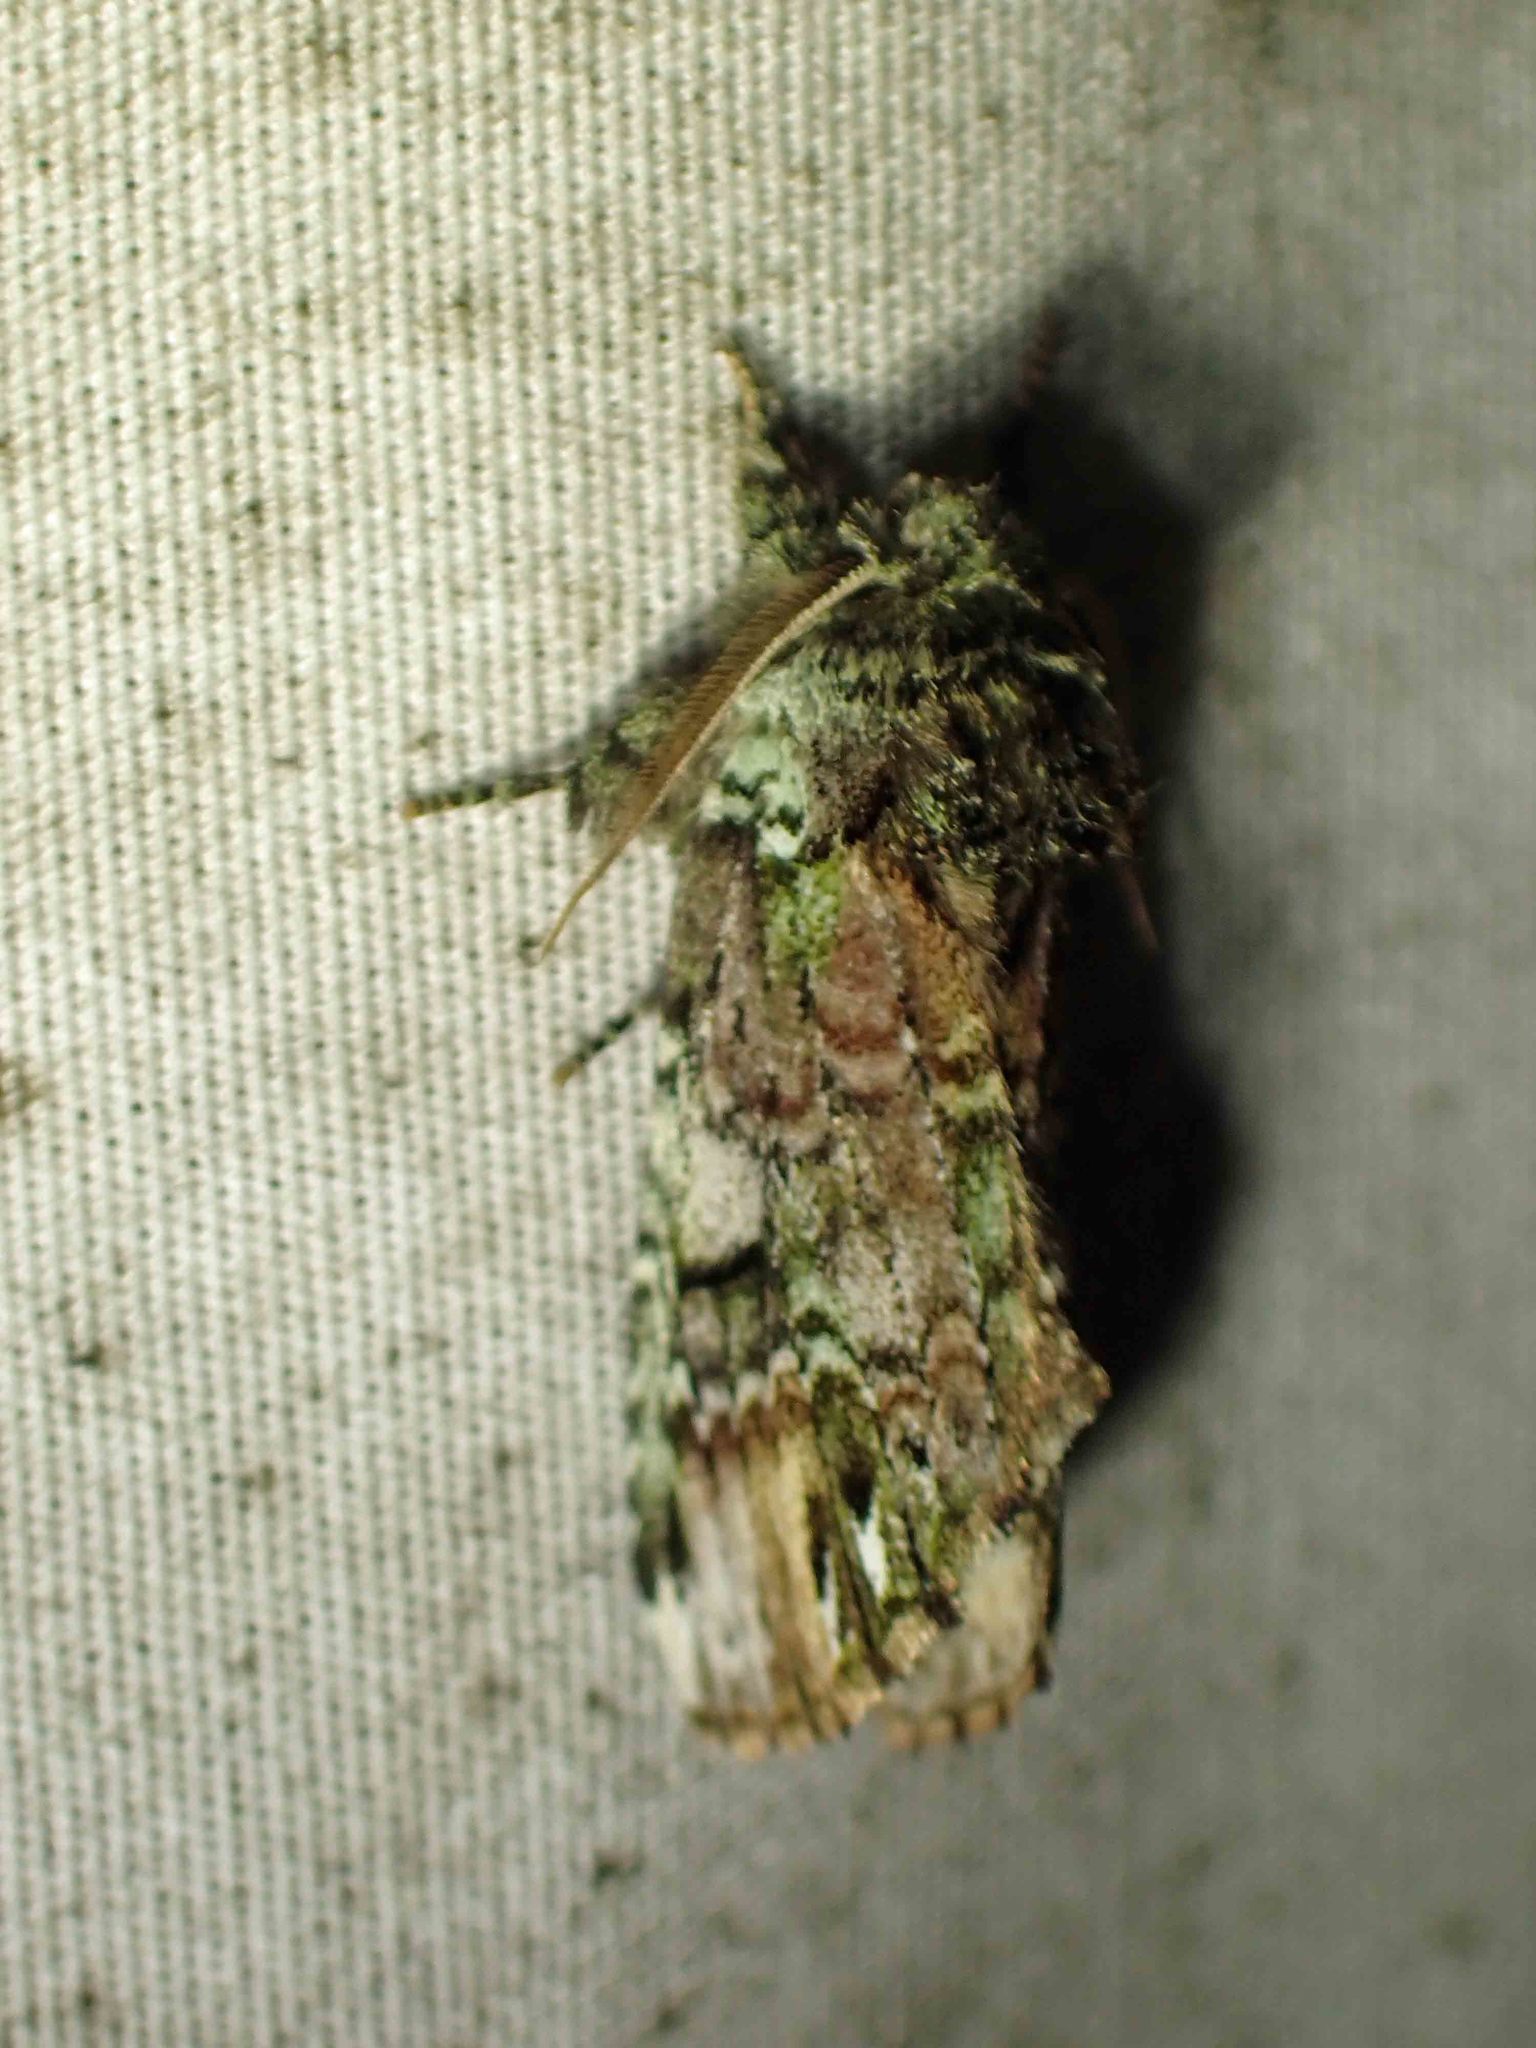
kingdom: Animalia
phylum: Arthropoda
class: Insecta
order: Lepidoptera
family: Notodontidae
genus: Schizura
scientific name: Schizura
